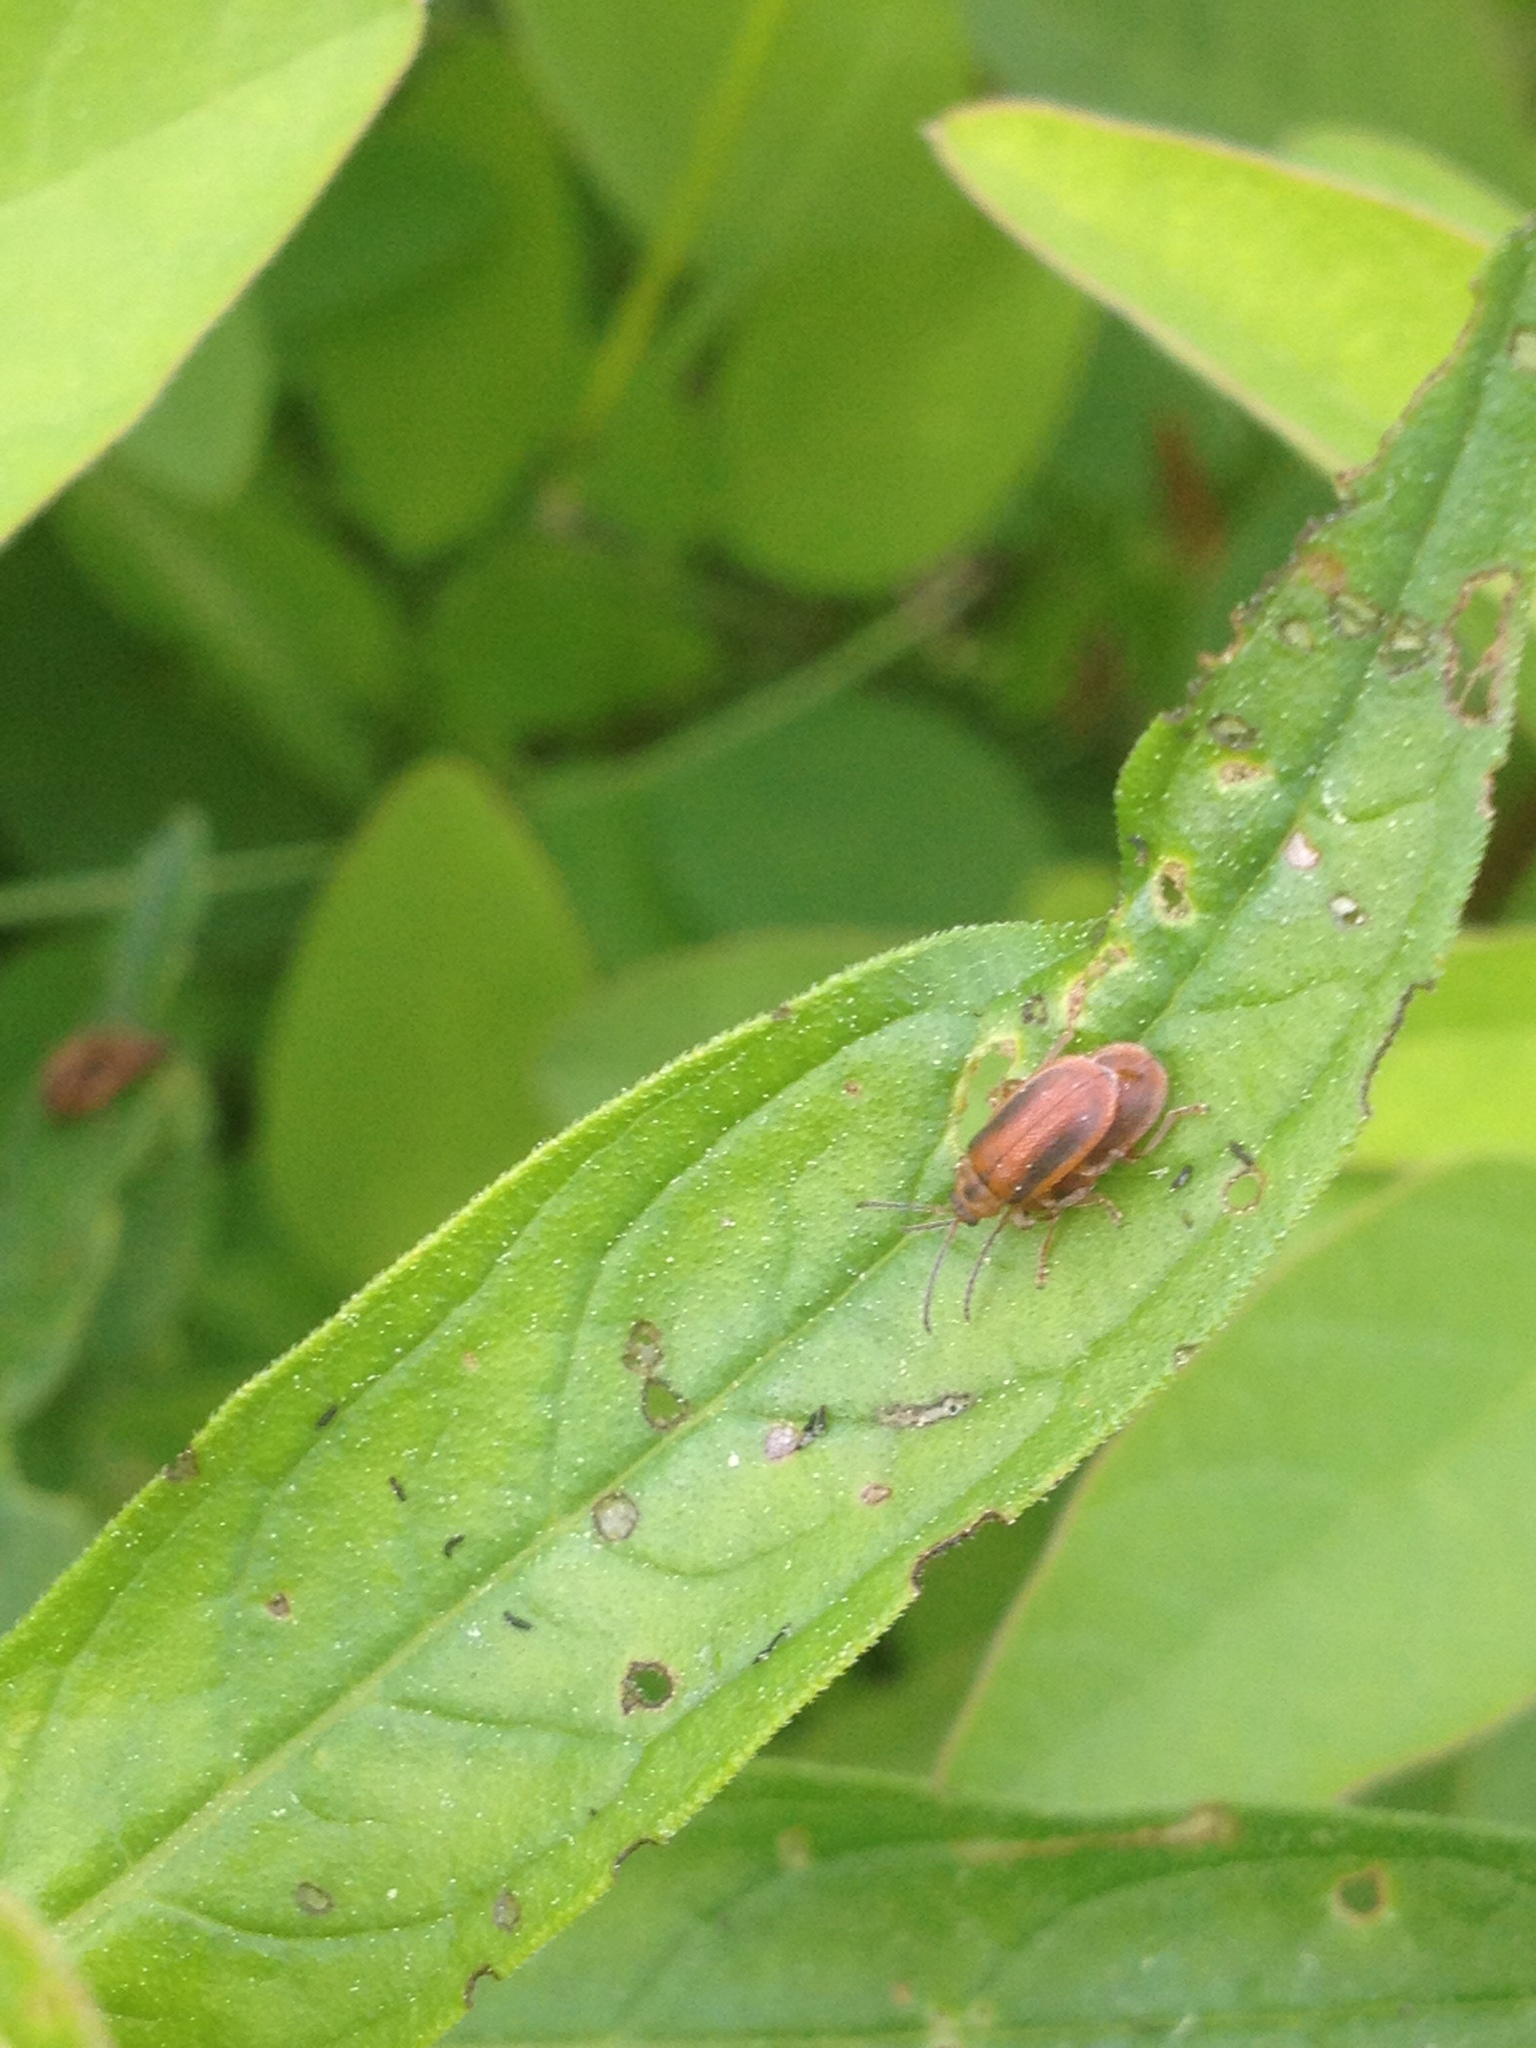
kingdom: Animalia
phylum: Arthropoda
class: Insecta
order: Coleoptera
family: Chrysomelidae
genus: Neogalerucella
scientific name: Neogalerucella calmariensis
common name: Black-margined loosestrife beetle
